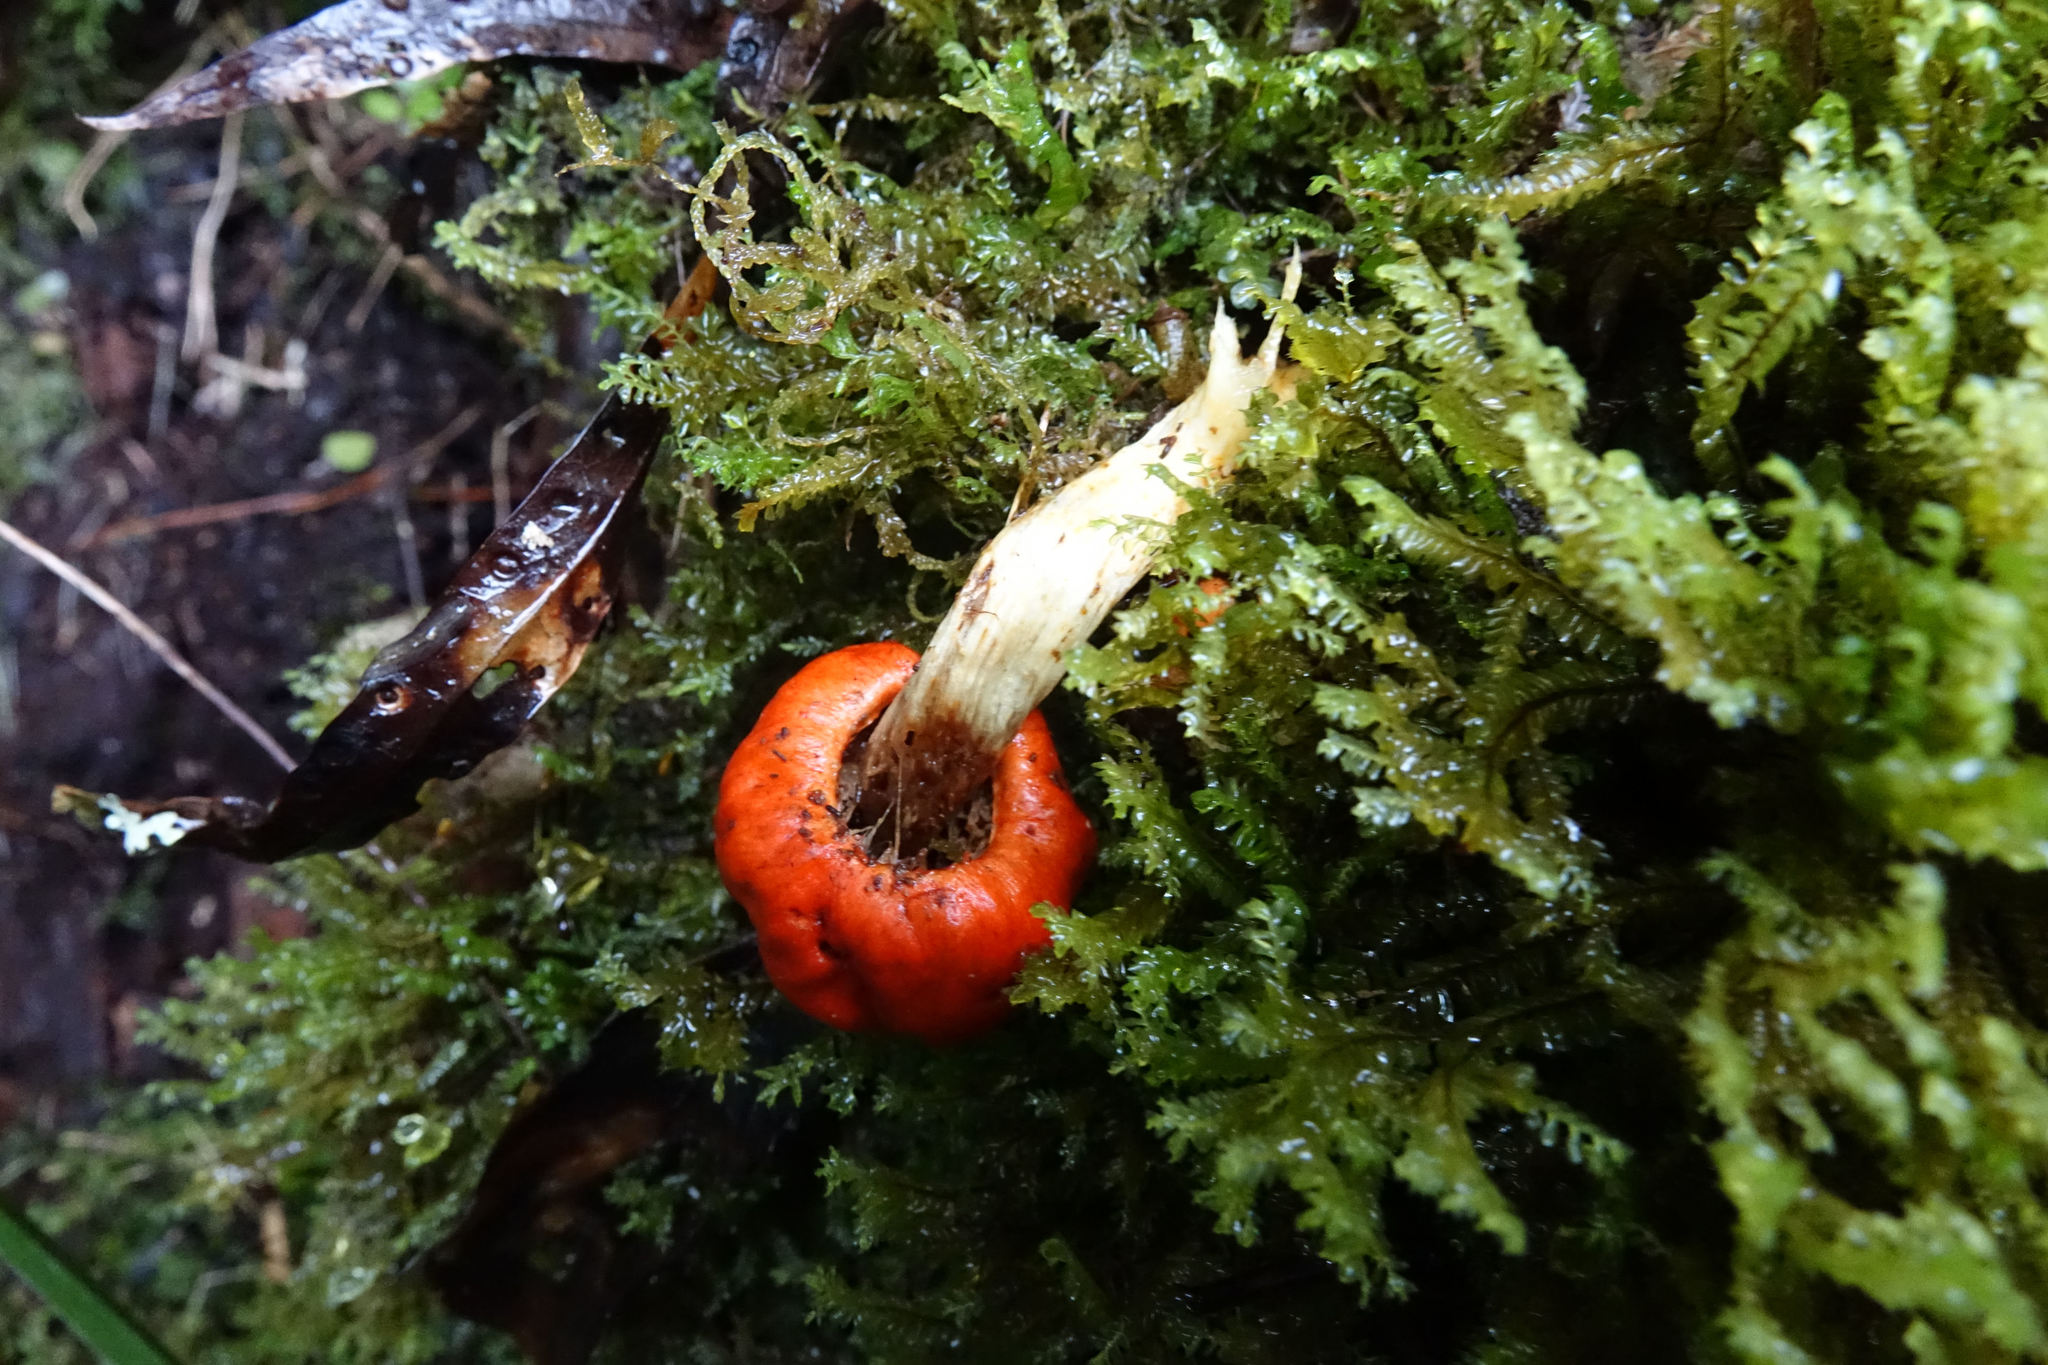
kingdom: Fungi
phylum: Basidiomycota
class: Agaricomycetes
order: Agaricales
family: Strophariaceae
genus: Leratiomyces
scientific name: Leratiomyces erythrocephalus
